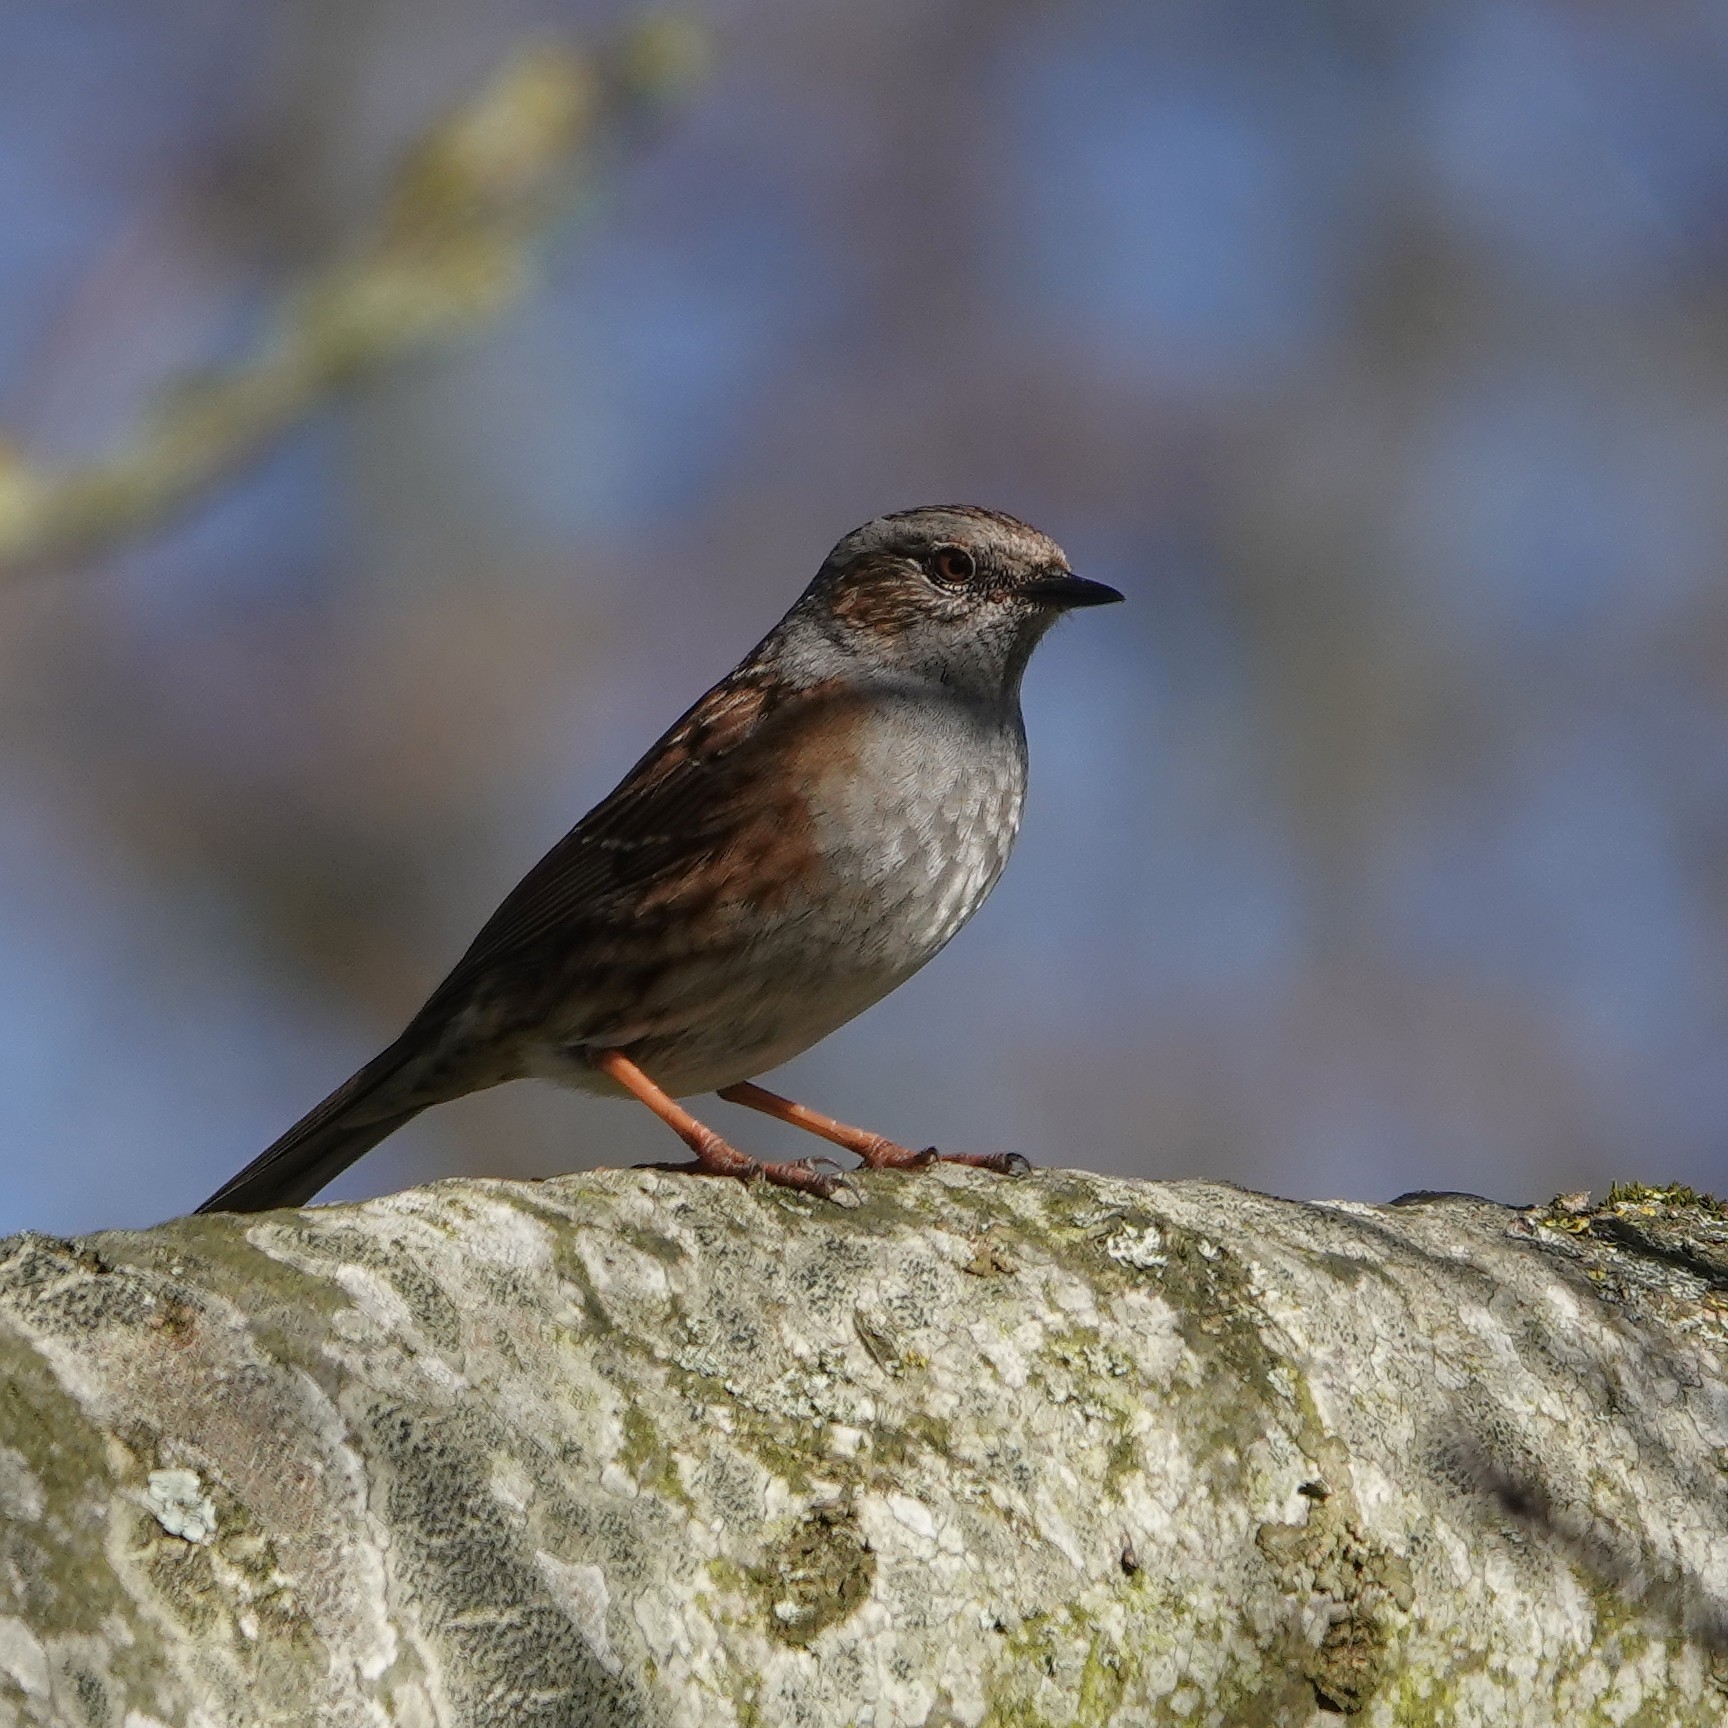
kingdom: Animalia
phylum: Chordata
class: Aves
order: Passeriformes
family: Prunellidae
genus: Prunella
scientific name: Prunella modularis
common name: Dunnock
